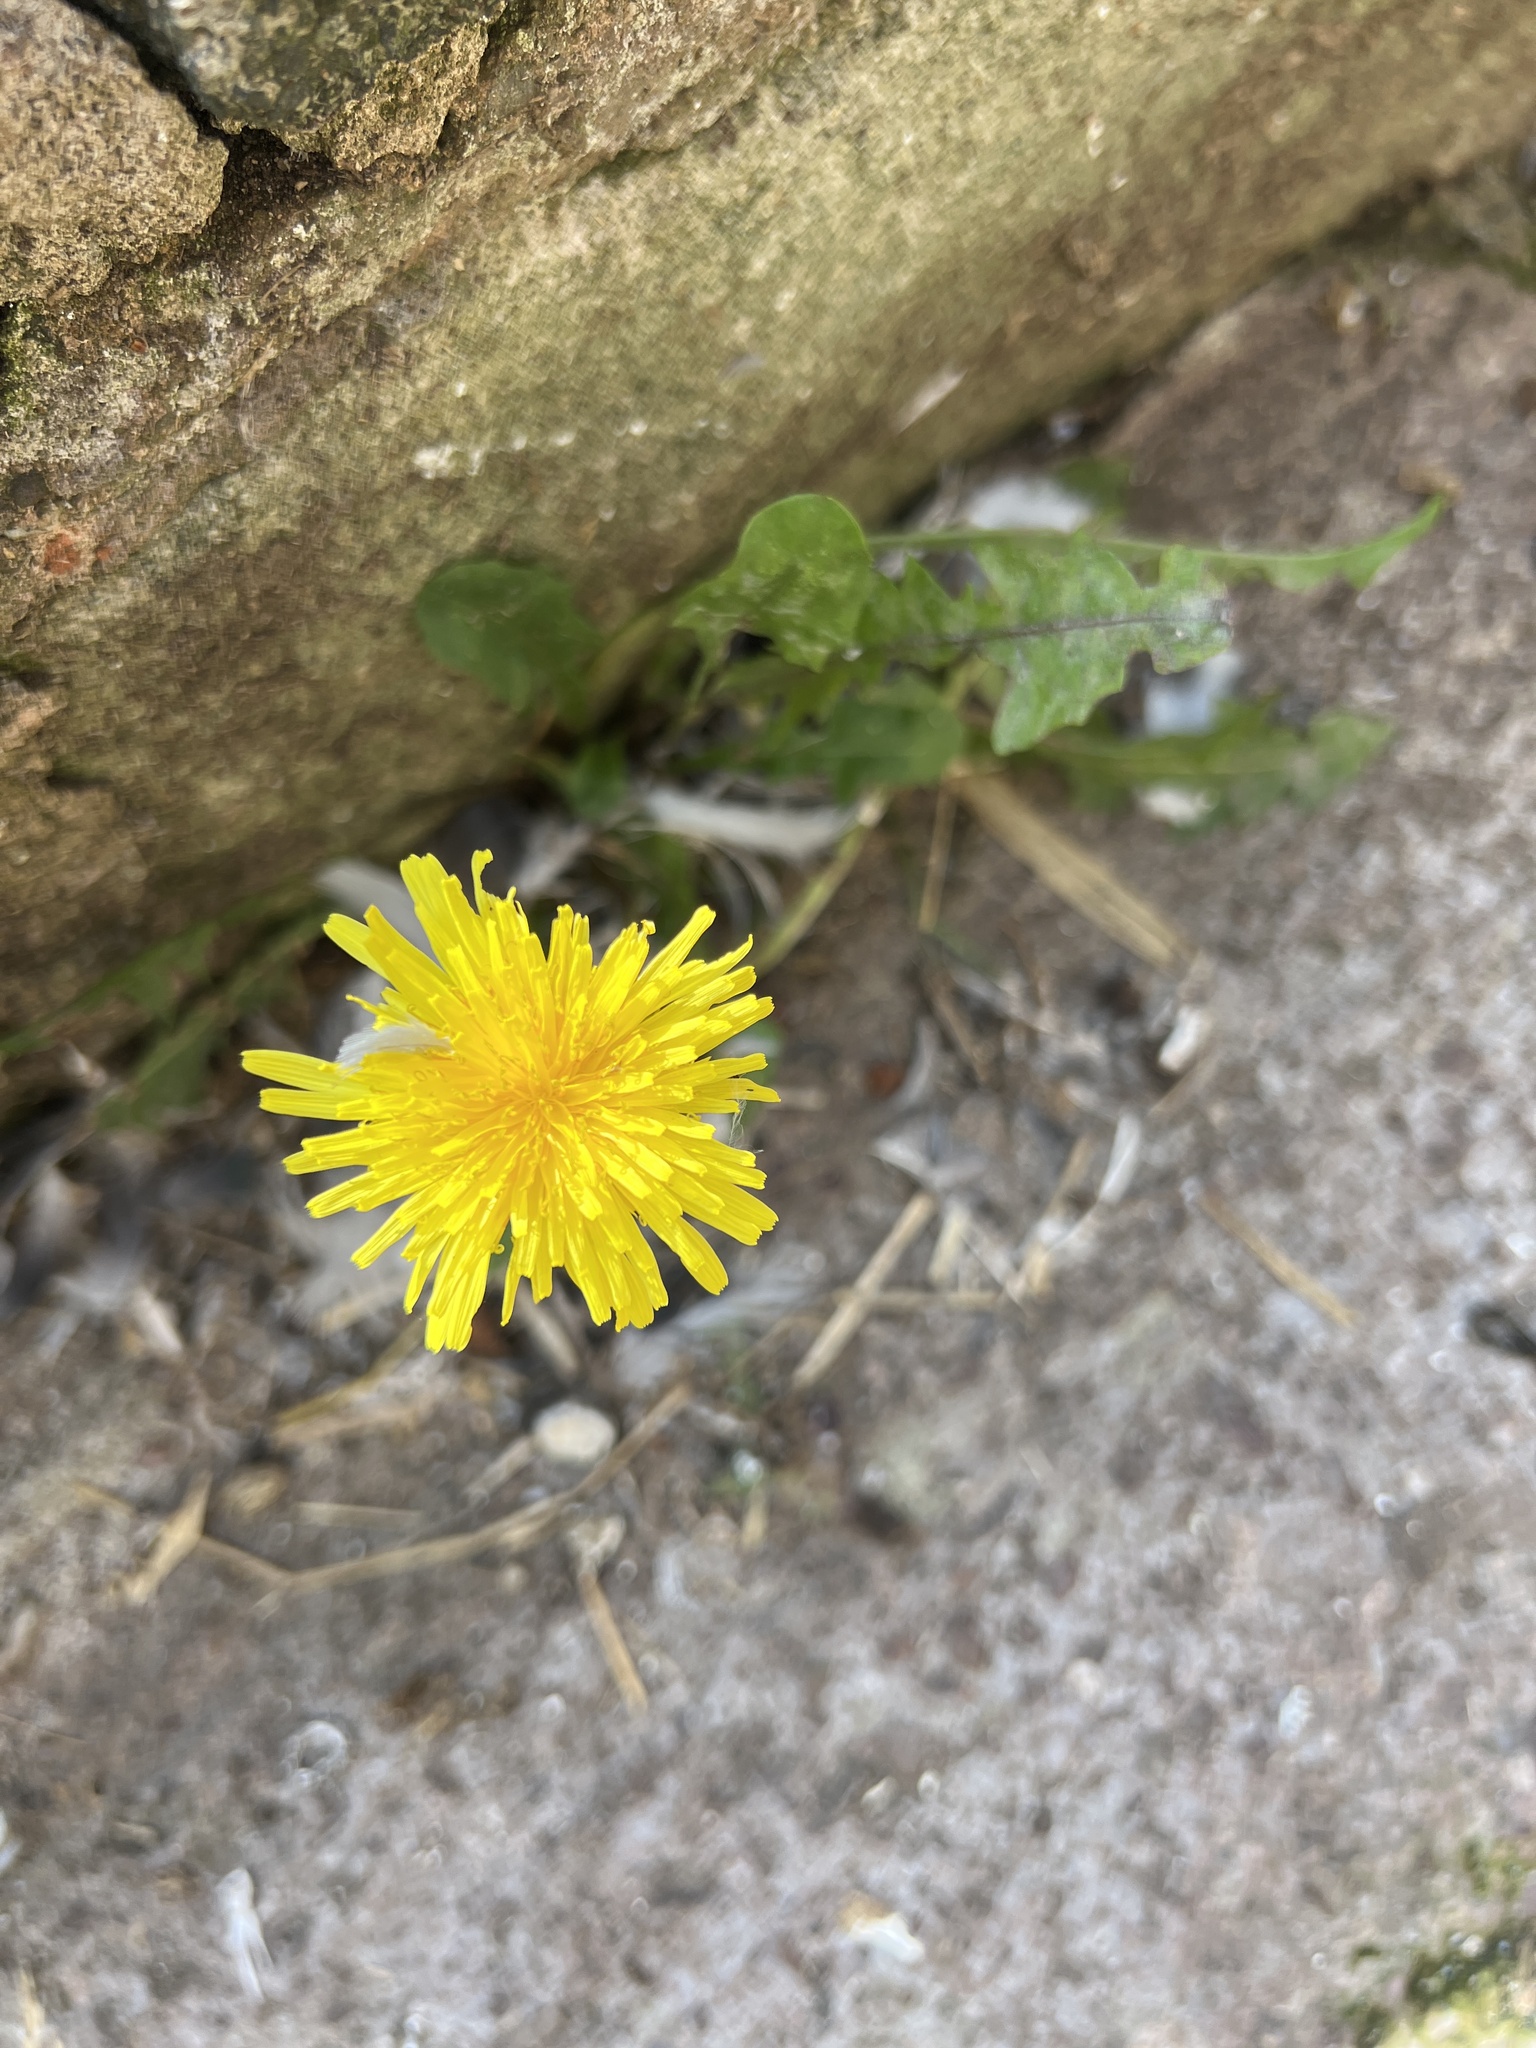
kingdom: Plantae
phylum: Tracheophyta
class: Magnoliopsida
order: Asterales
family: Asteraceae
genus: Taraxacum
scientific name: Taraxacum officinale
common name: Common dandelion
